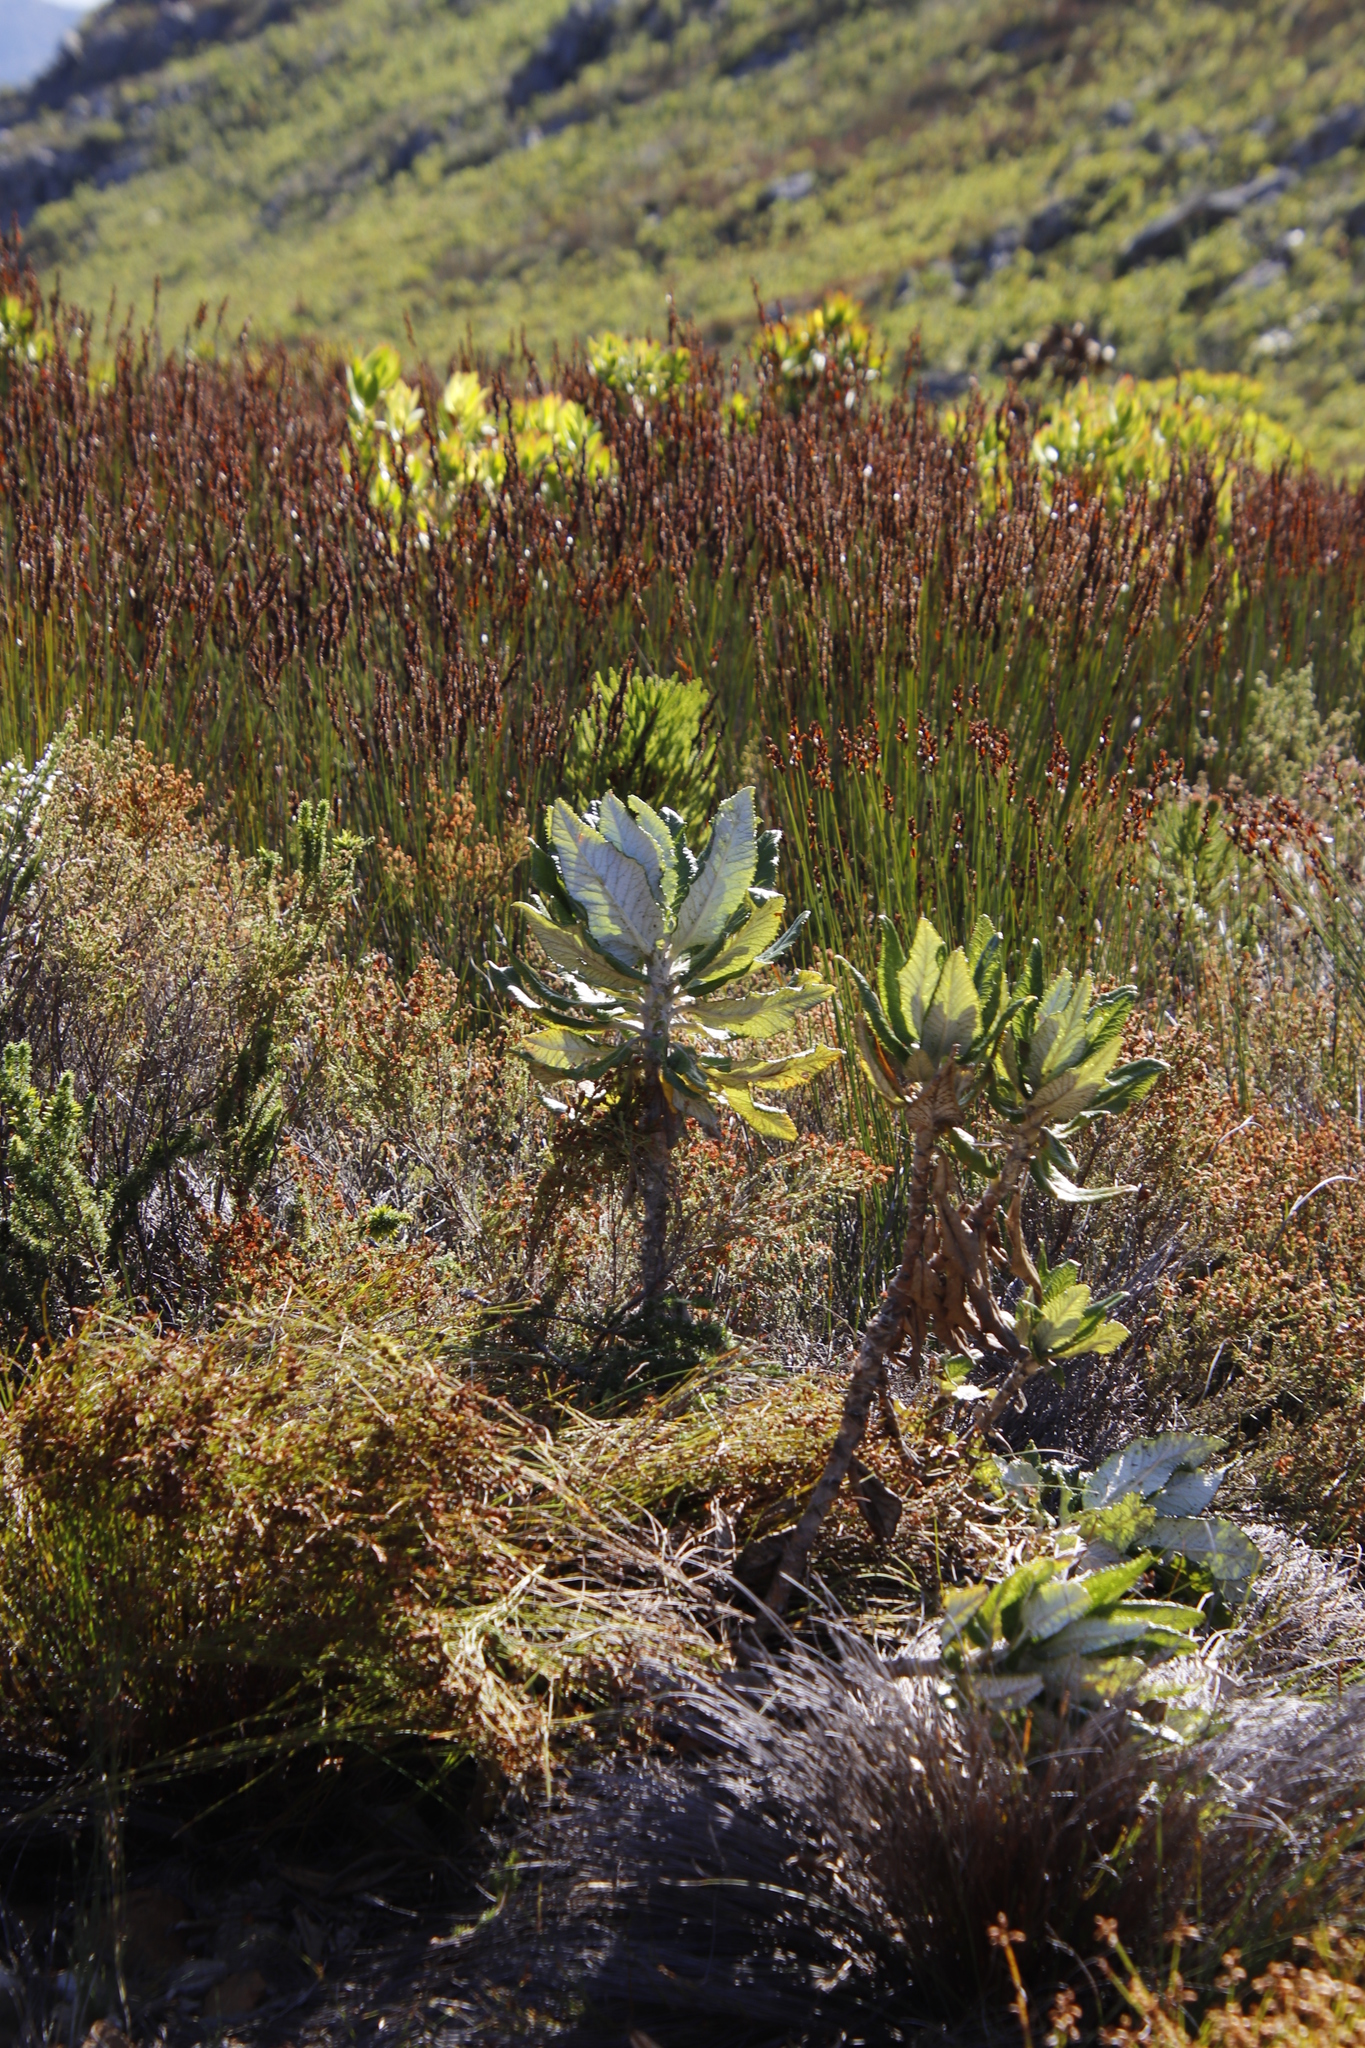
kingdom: Plantae
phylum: Tracheophyta
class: Magnoliopsida
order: Apiales
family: Apiaceae
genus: Hermas
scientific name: Hermas villosa
